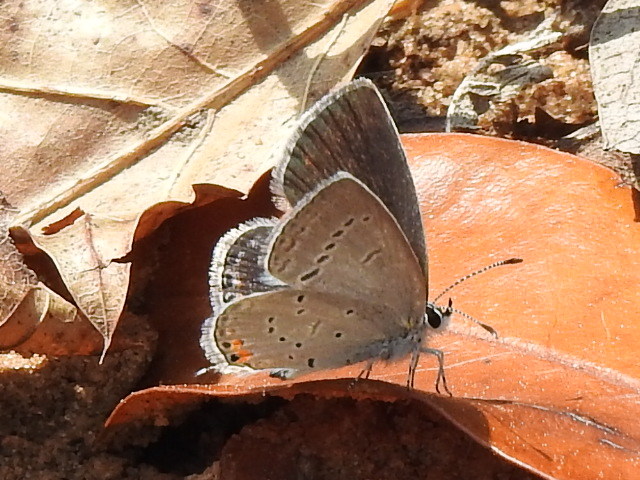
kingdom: Animalia
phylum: Arthropoda
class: Insecta
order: Lepidoptera
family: Lycaenidae
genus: Elkalyce
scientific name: Elkalyce comyntas
